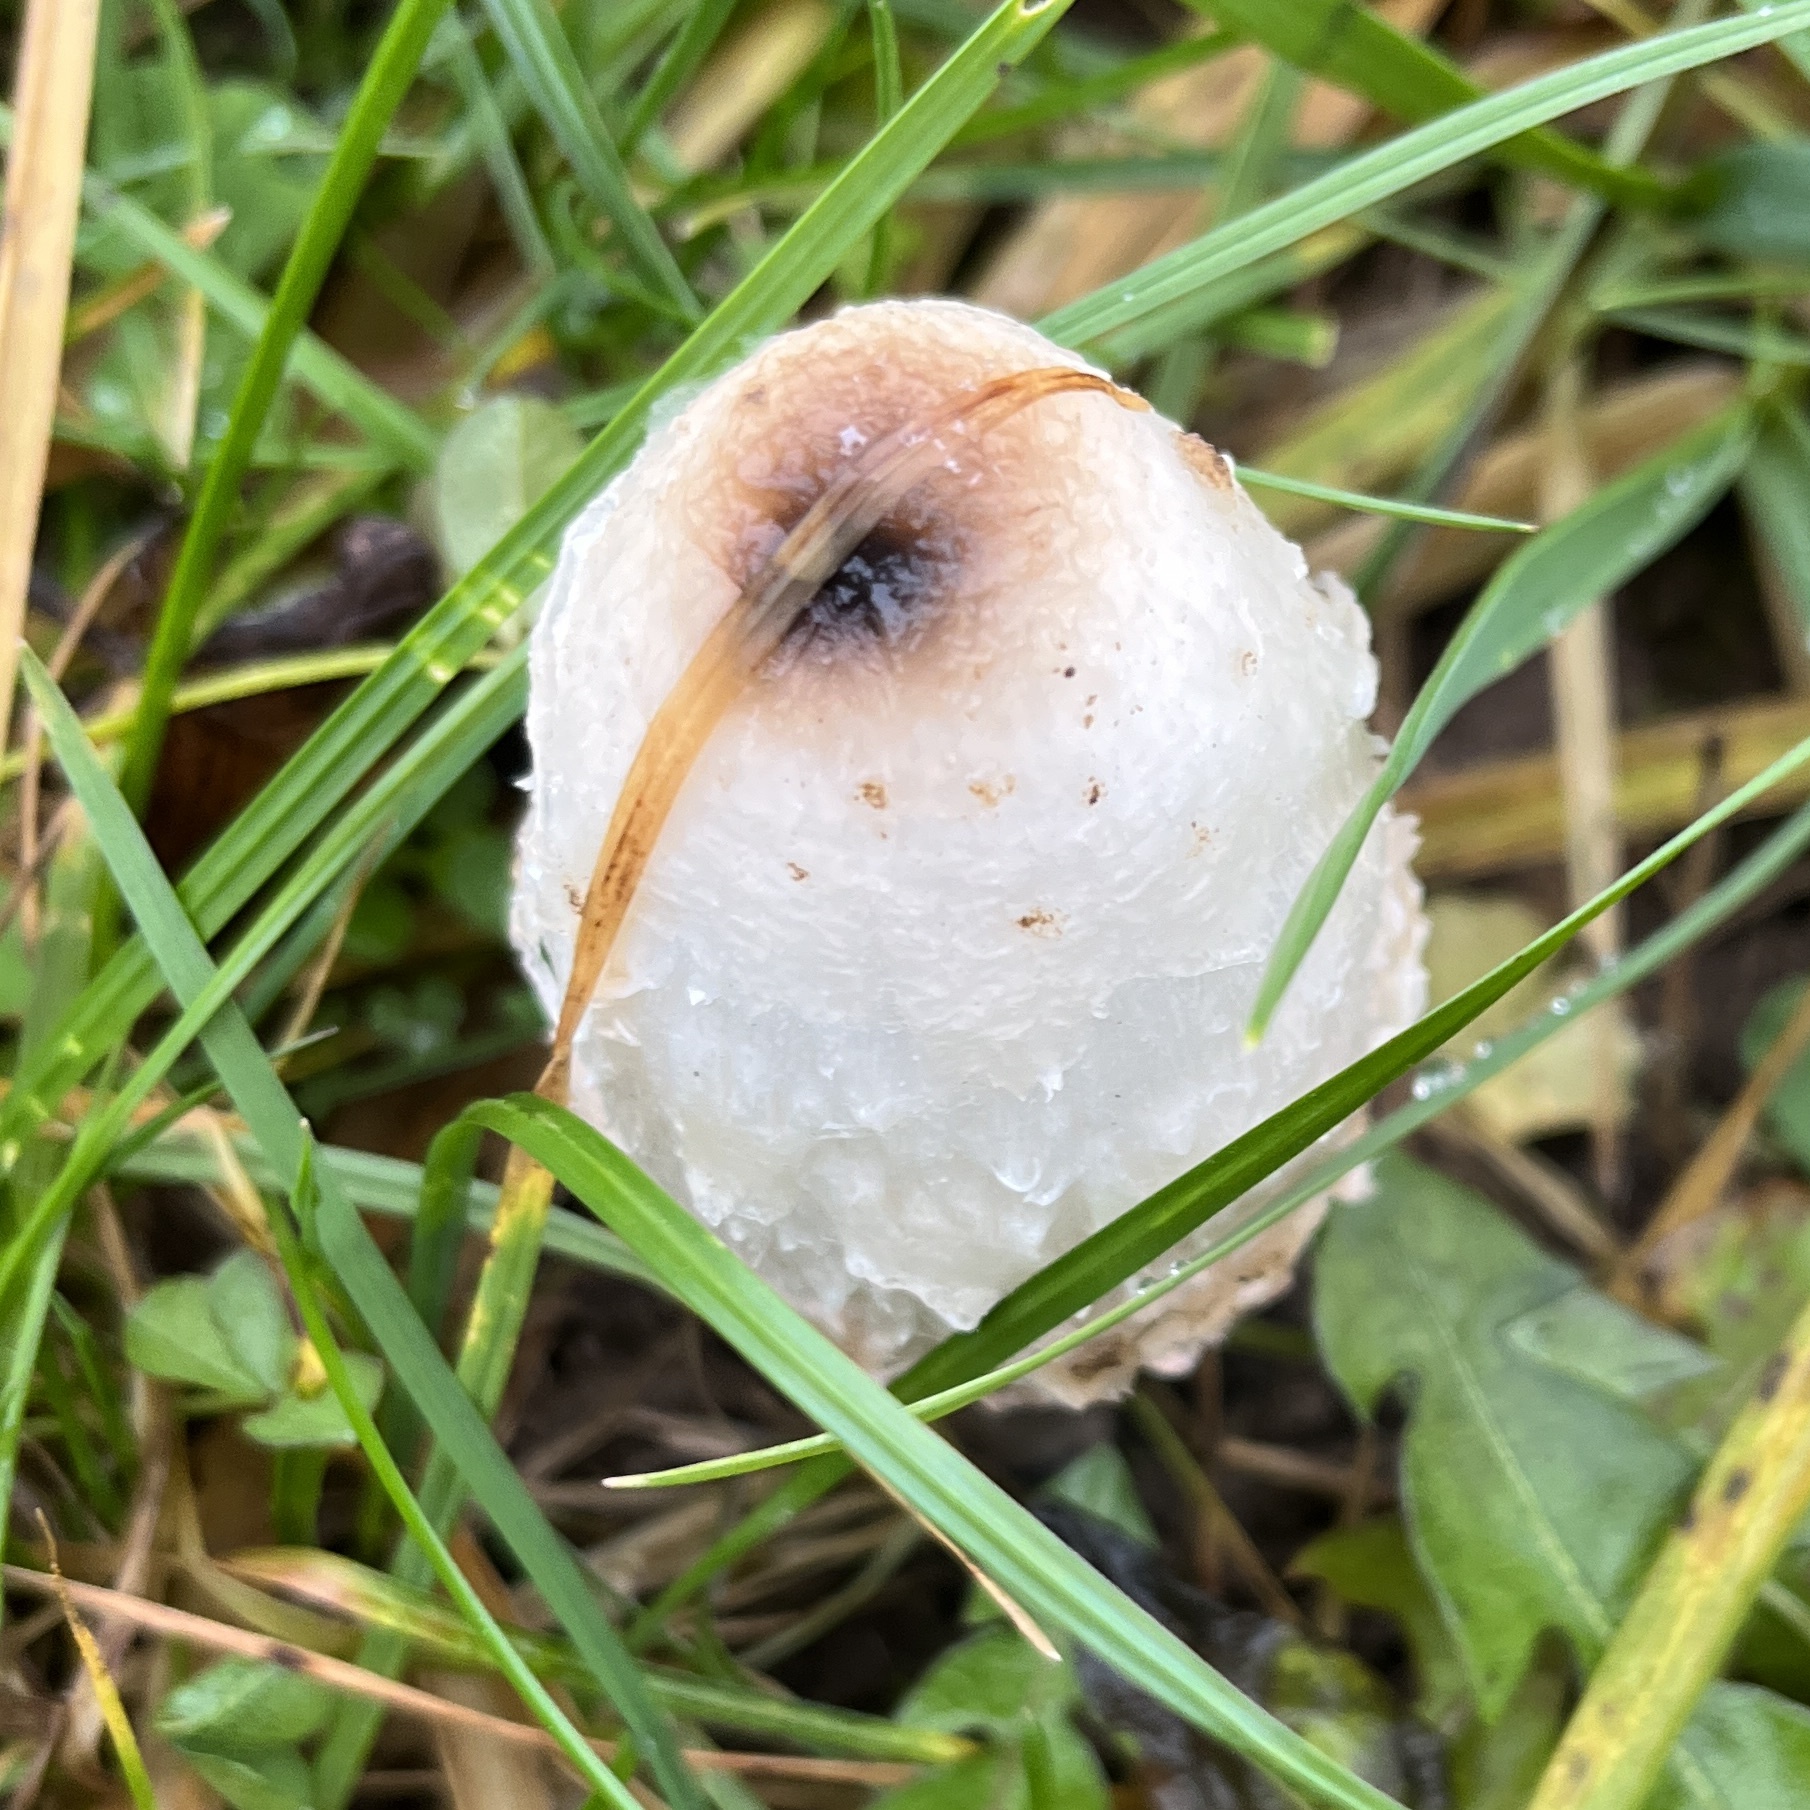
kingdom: Fungi
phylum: Basidiomycota
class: Agaricomycetes
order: Agaricales
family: Agaricaceae
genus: Coprinus
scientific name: Coprinus comatus
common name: Lawyer's wig
